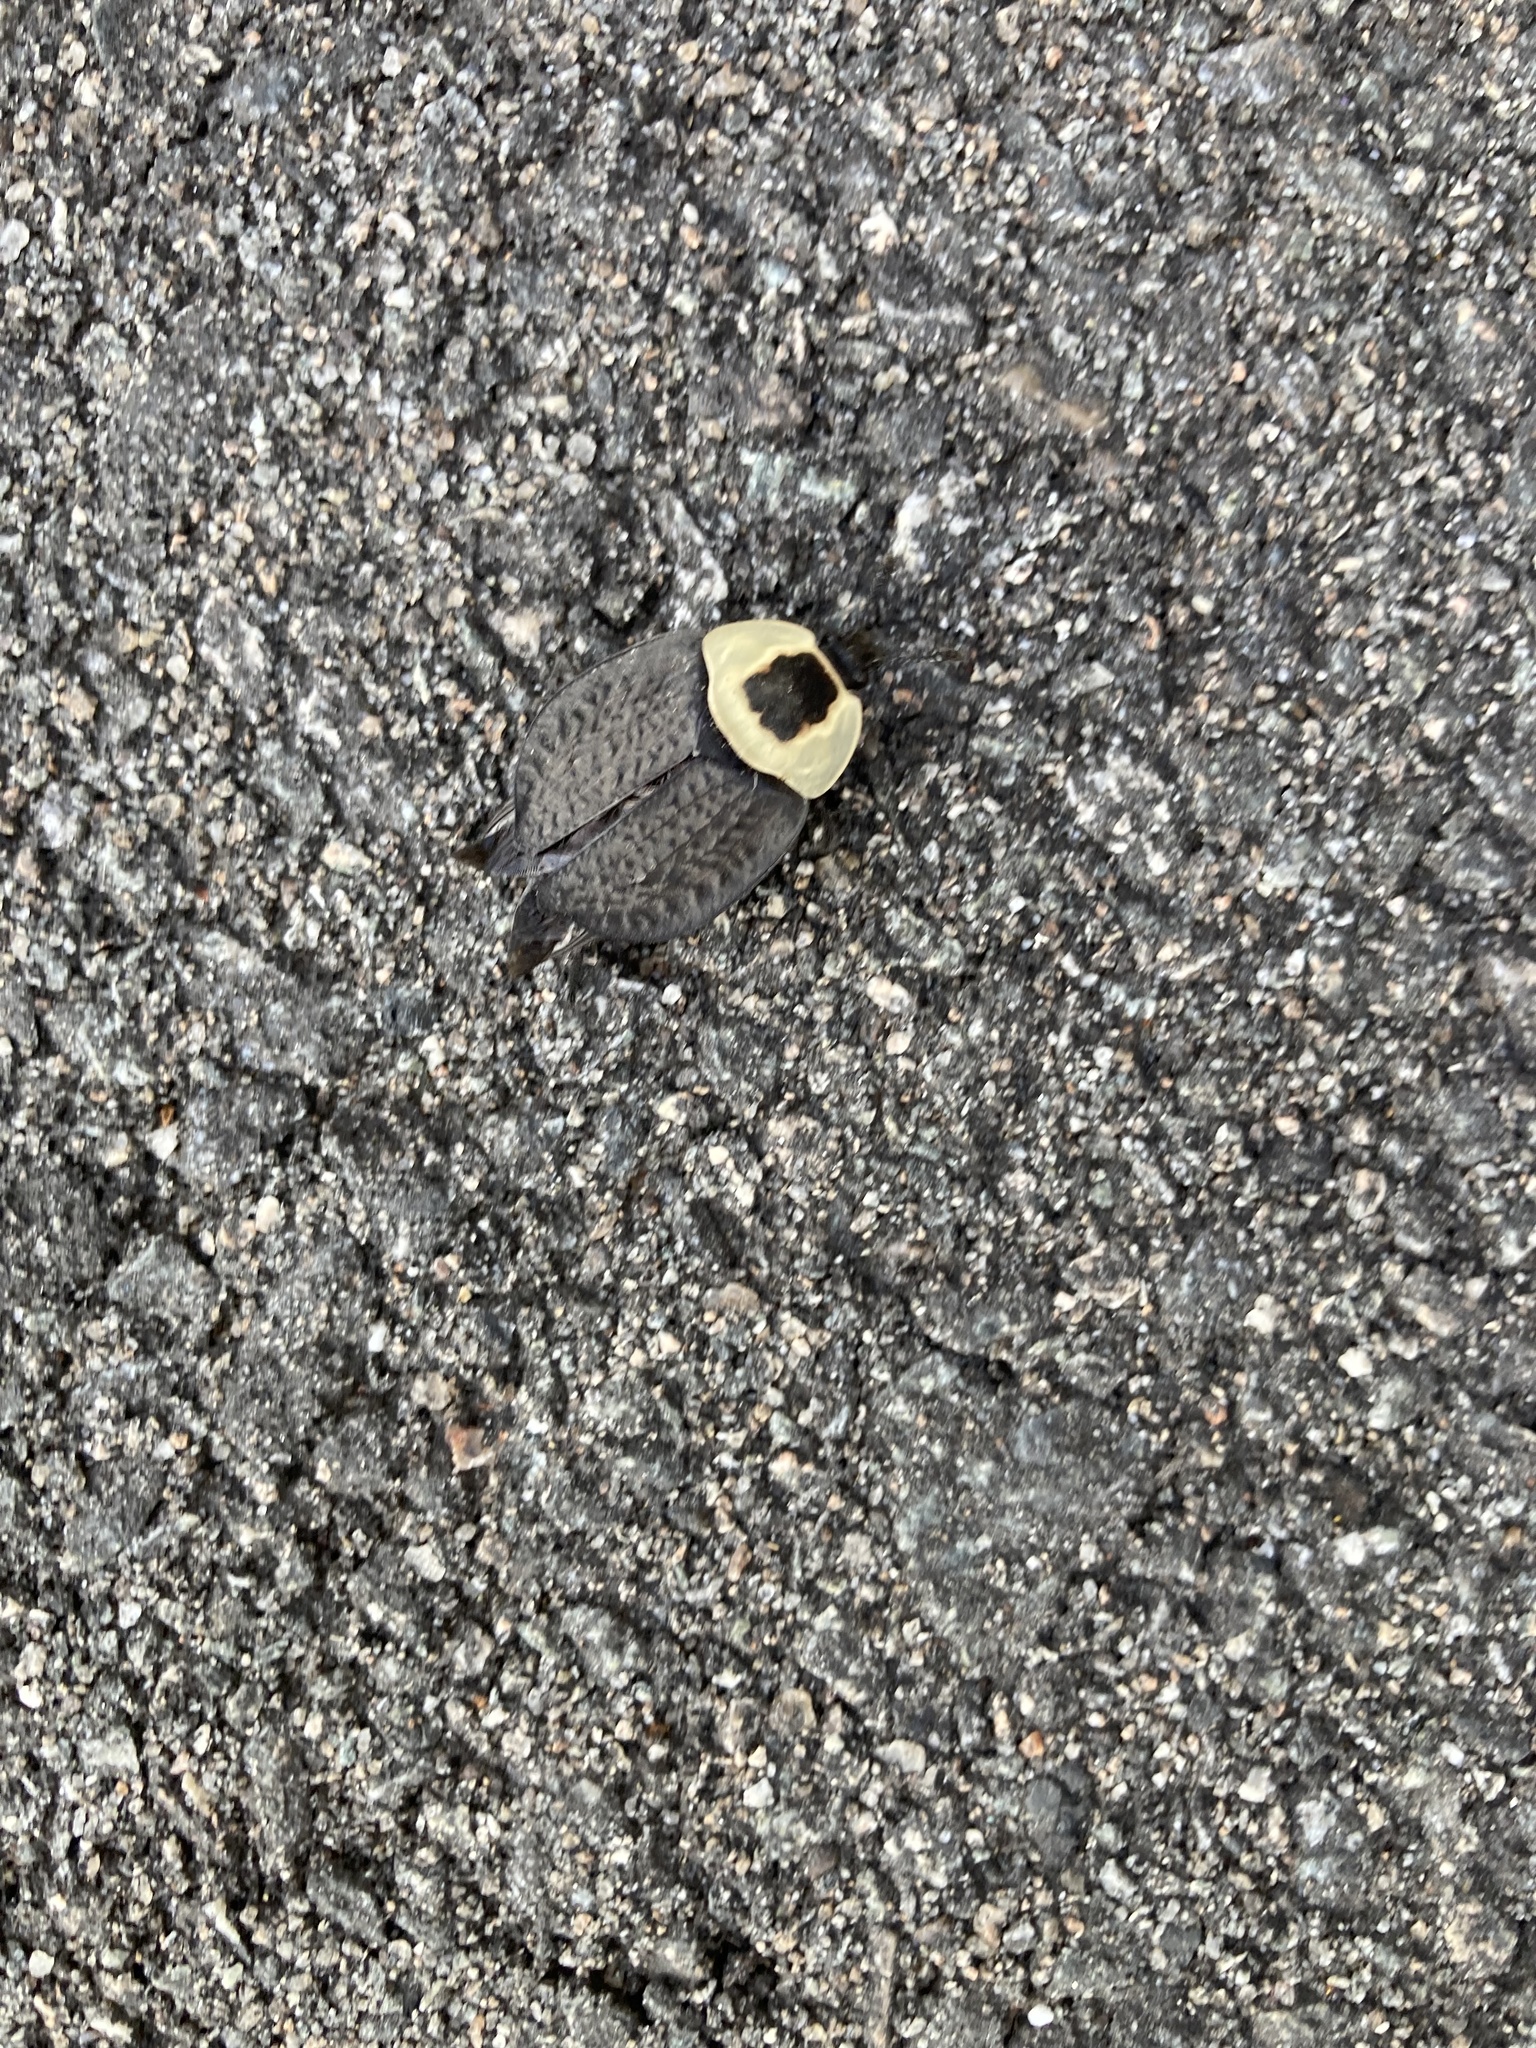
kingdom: Animalia
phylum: Arthropoda
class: Insecta
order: Coleoptera
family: Staphylinidae
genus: Necrophila
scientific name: Necrophila americana
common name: American carrion beetle
